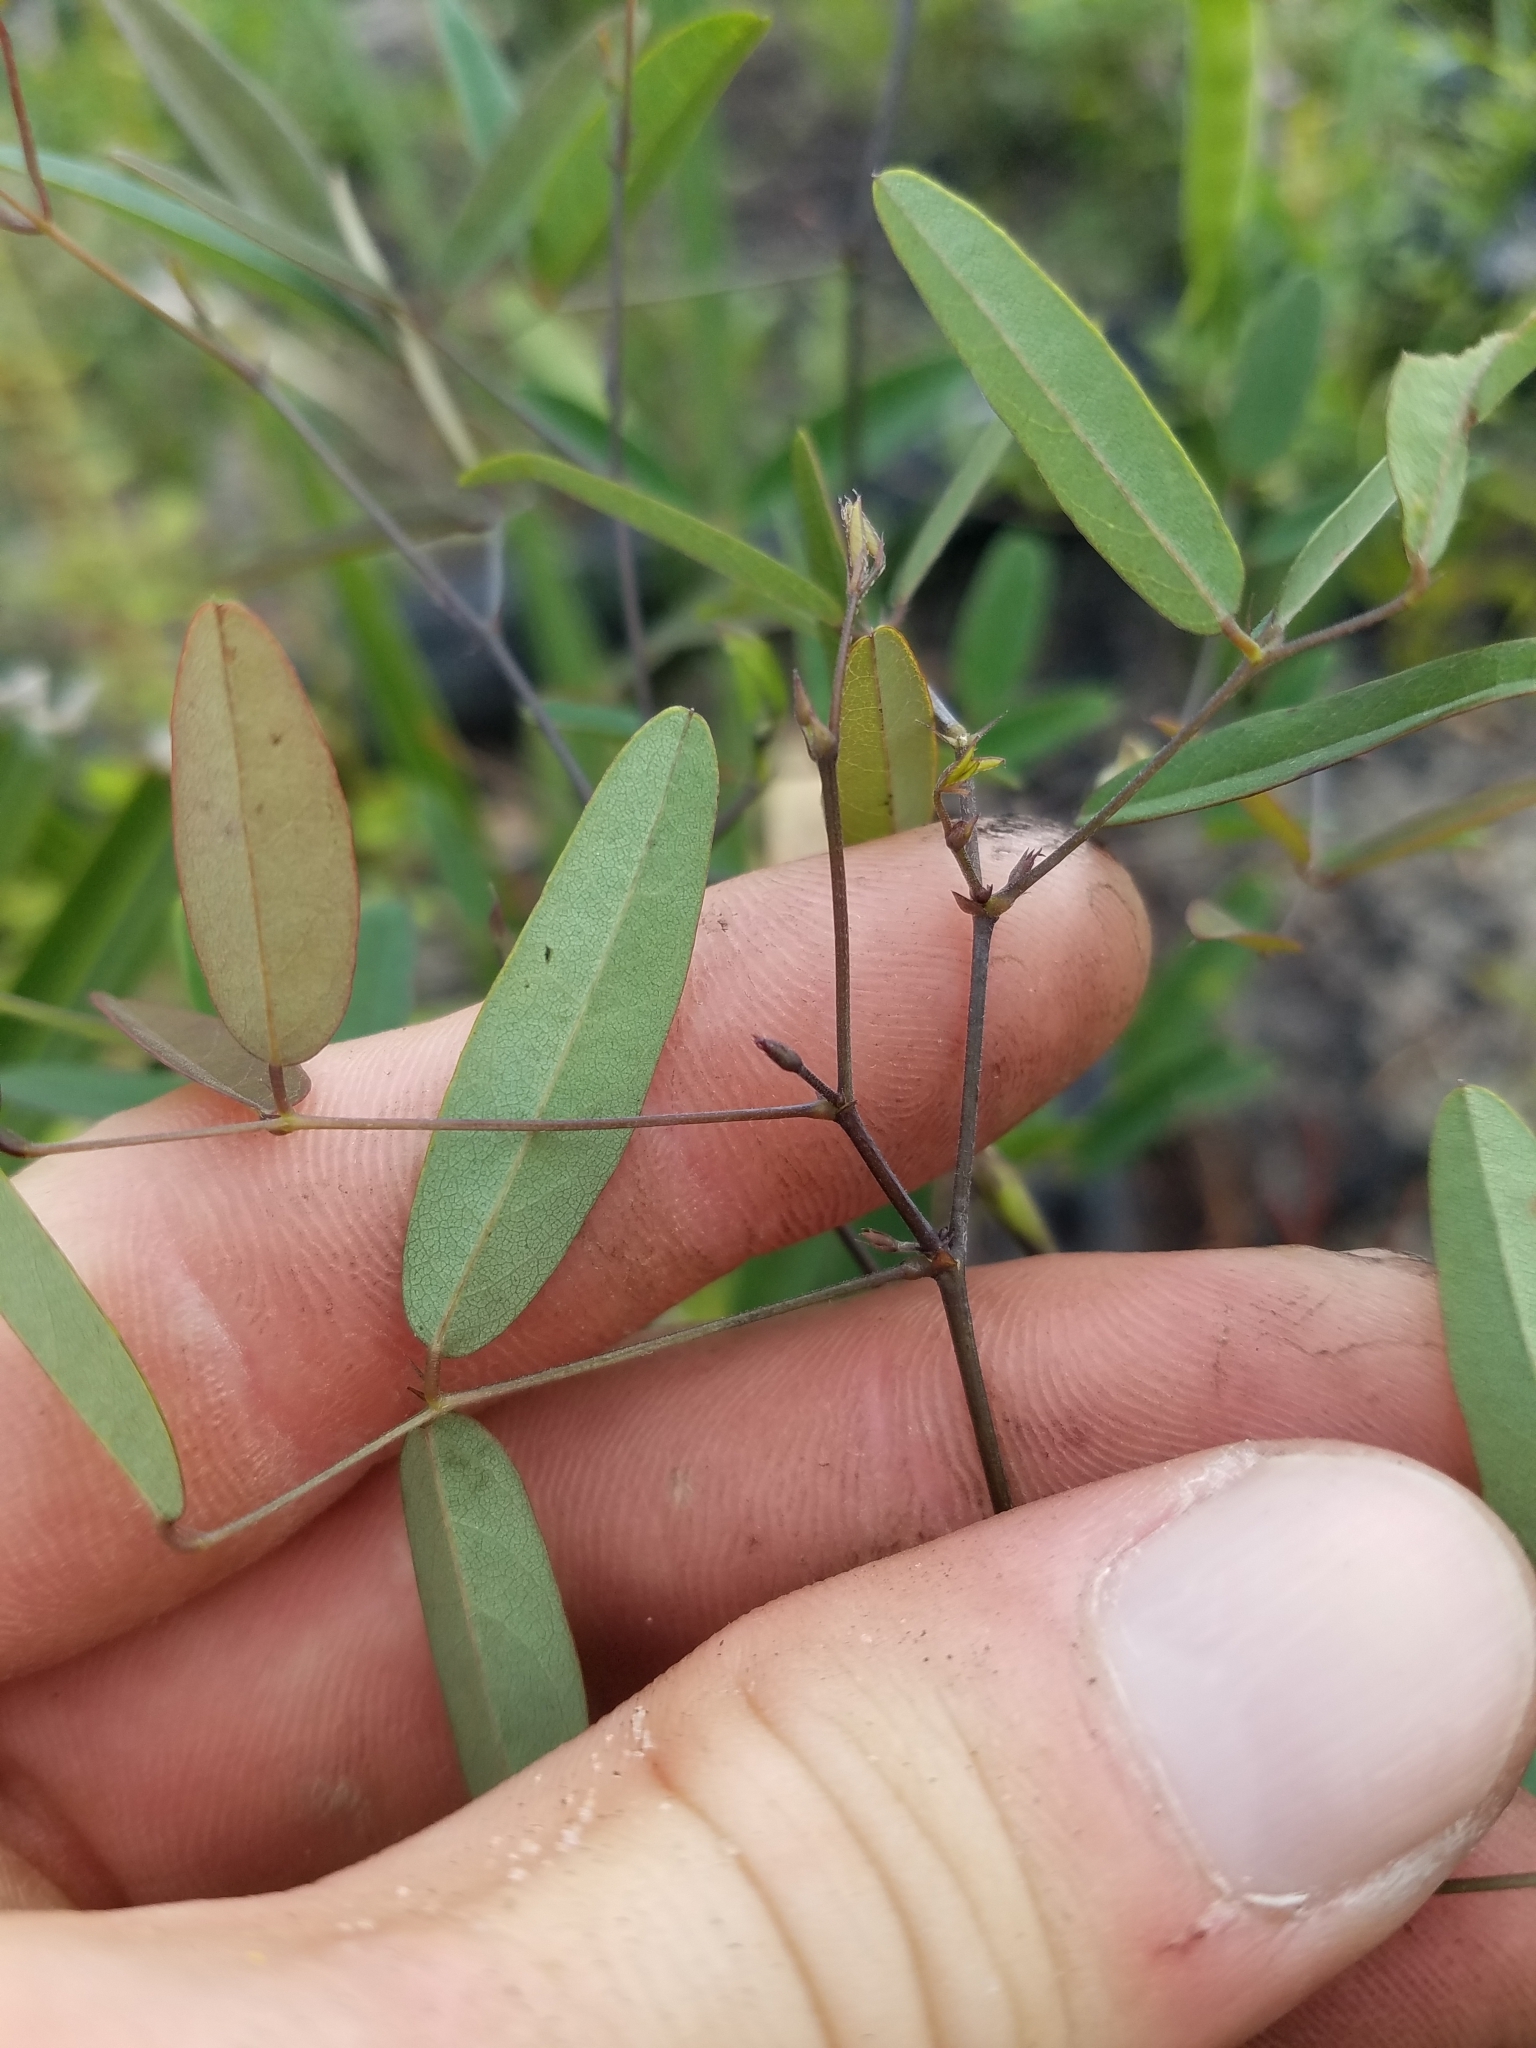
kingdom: Plantae
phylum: Tracheophyta
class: Magnoliopsida
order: Fabales
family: Fabaceae
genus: Clitoria
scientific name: Clitoria fragrans
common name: Pigeon-wings
